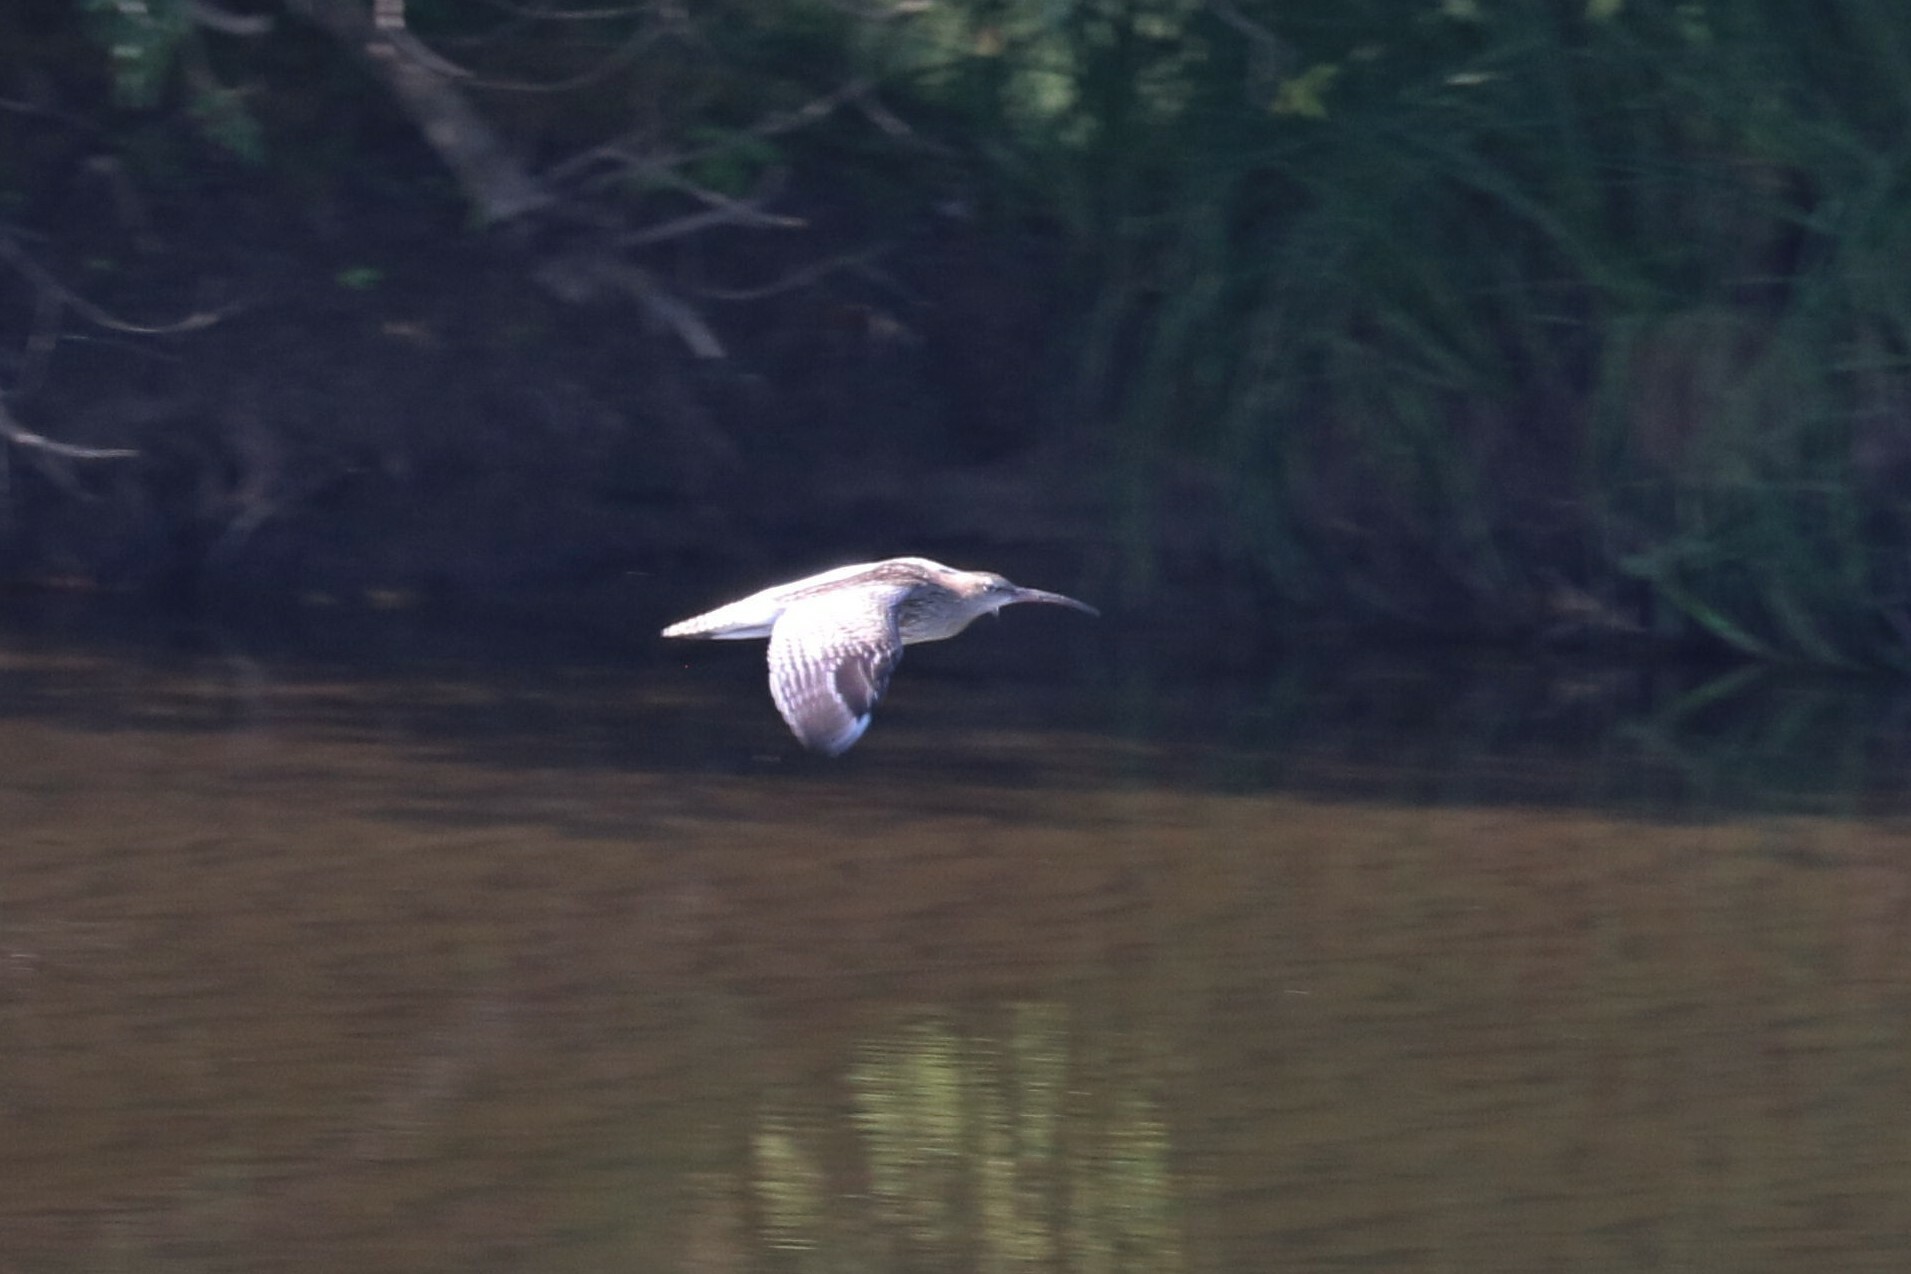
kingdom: Animalia
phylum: Chordata
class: Aves
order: Charadriiformes
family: Scolopacidae
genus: Numenius
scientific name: Numenius arquata
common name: Eurasian curlew
